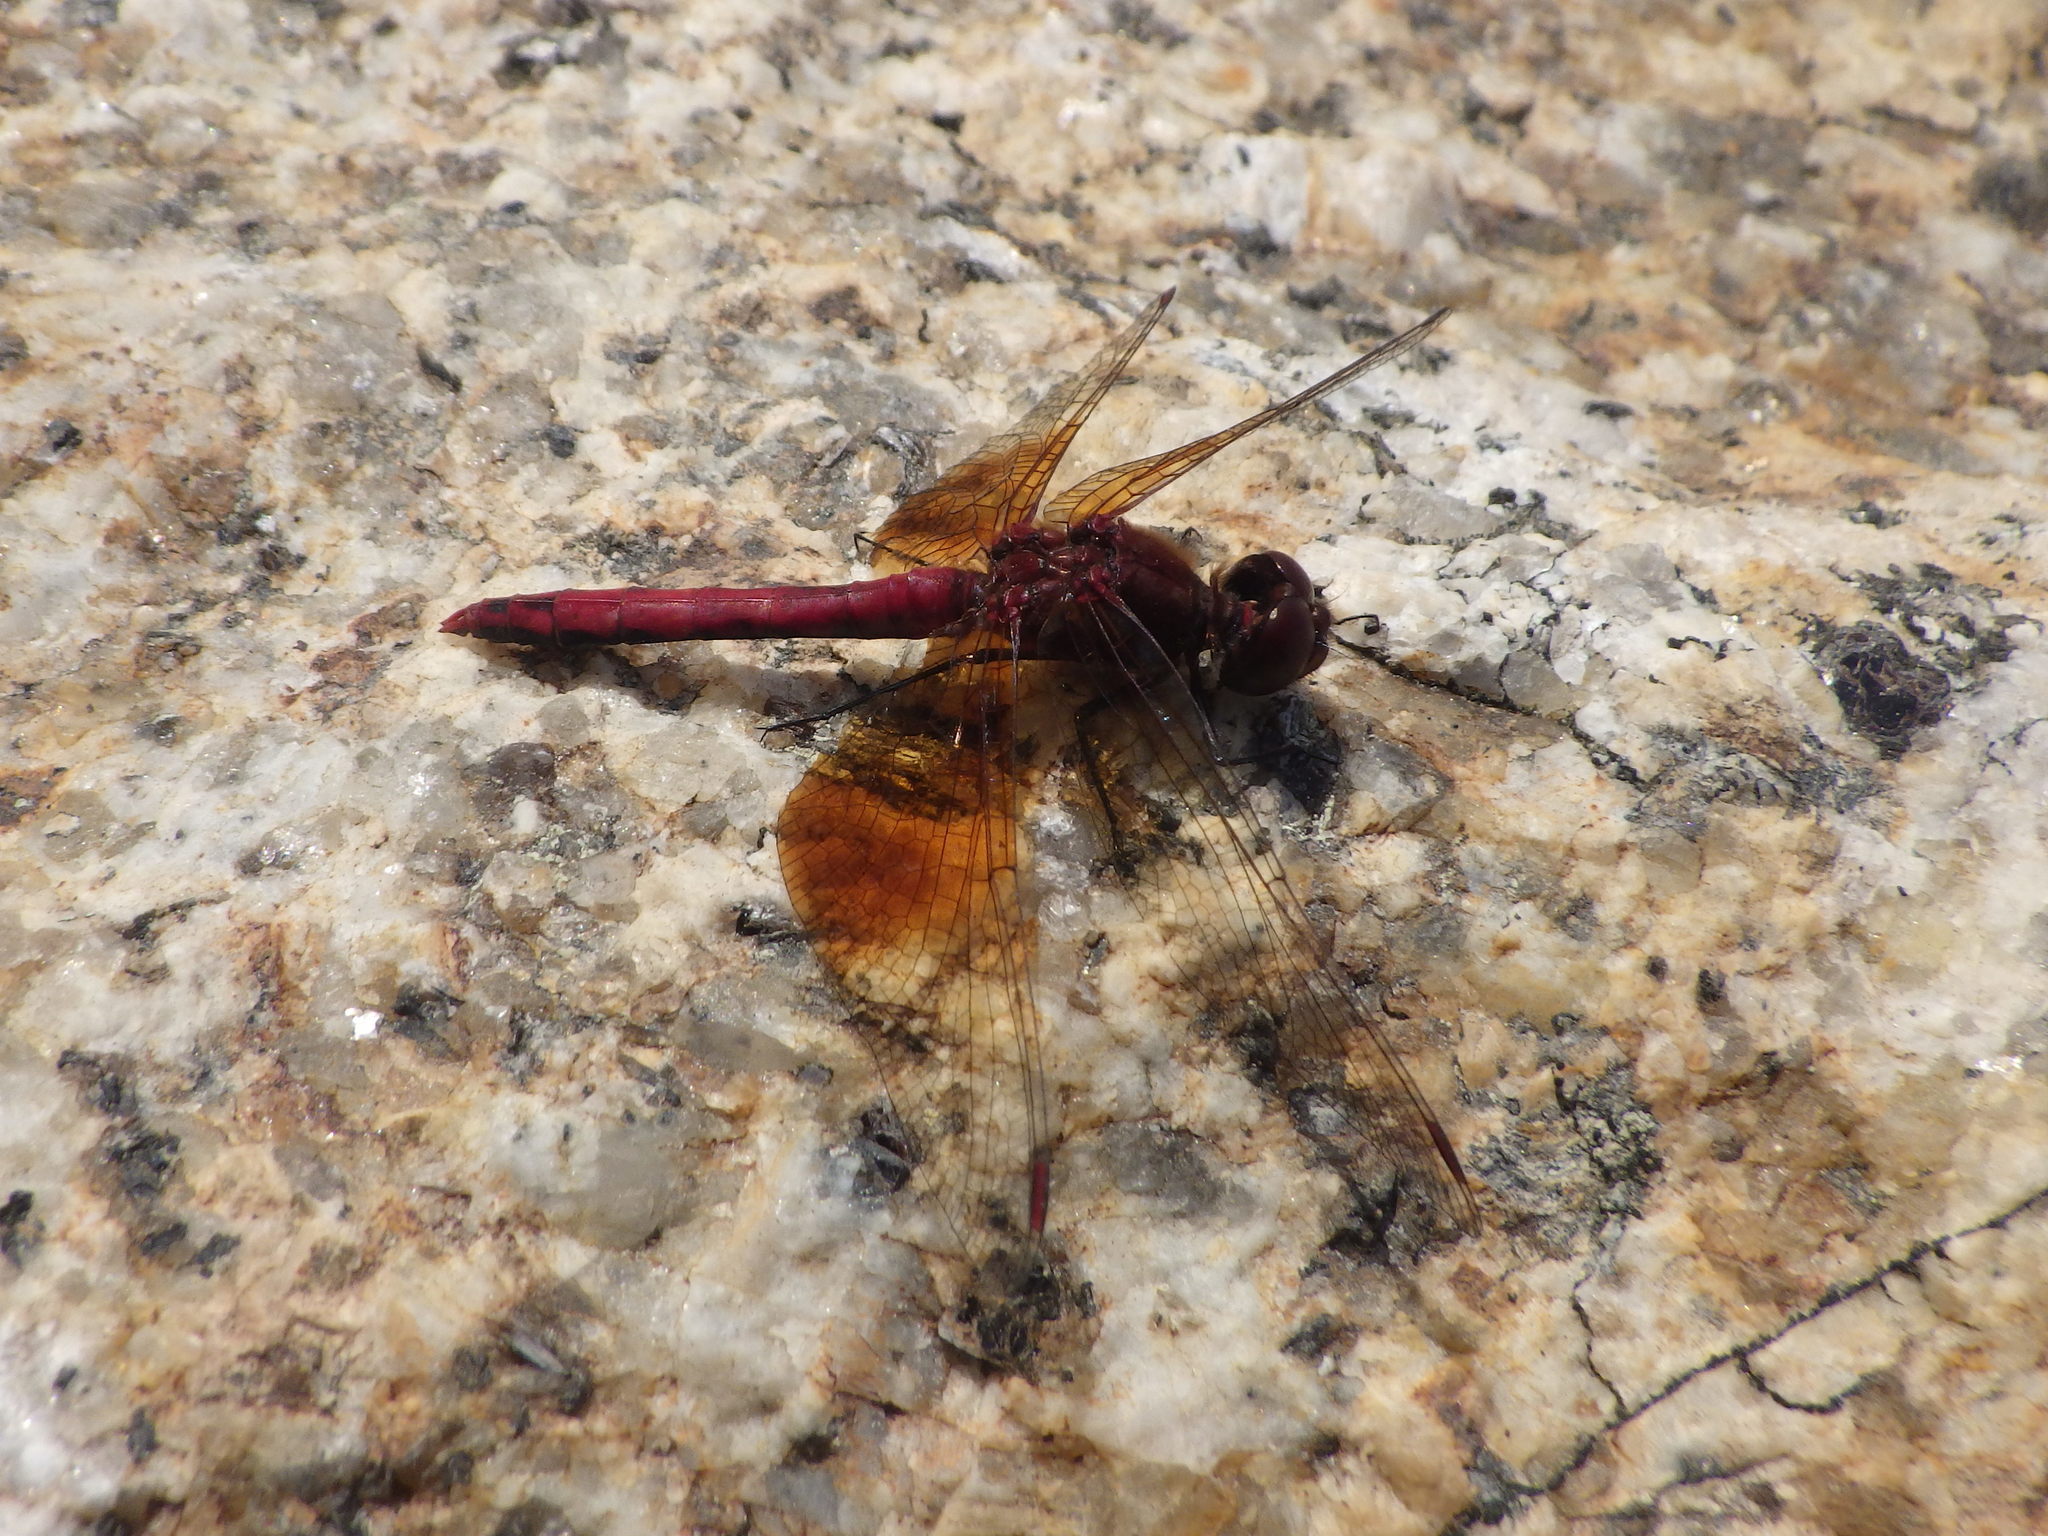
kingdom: Animalia
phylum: Arthropoda
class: Insecta
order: Odonata
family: Libellulidae
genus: Sympetrum
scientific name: Sympetrum semicinctum
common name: Band-winged meadowhawk
